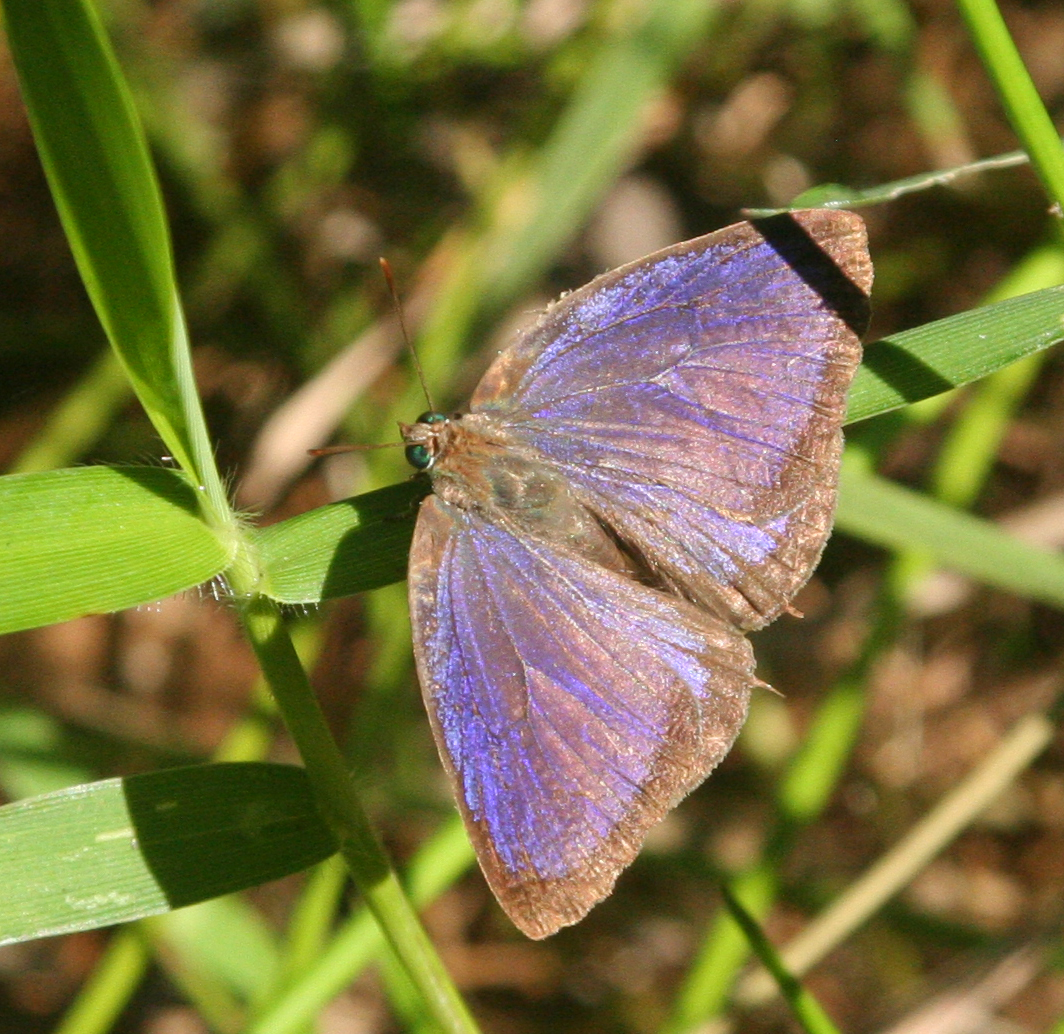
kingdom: Animalia
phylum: Arthropoda
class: Insecta
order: Lepidoptera
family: Lycaenidae
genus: Arhopala
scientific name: Arhopala elopura
